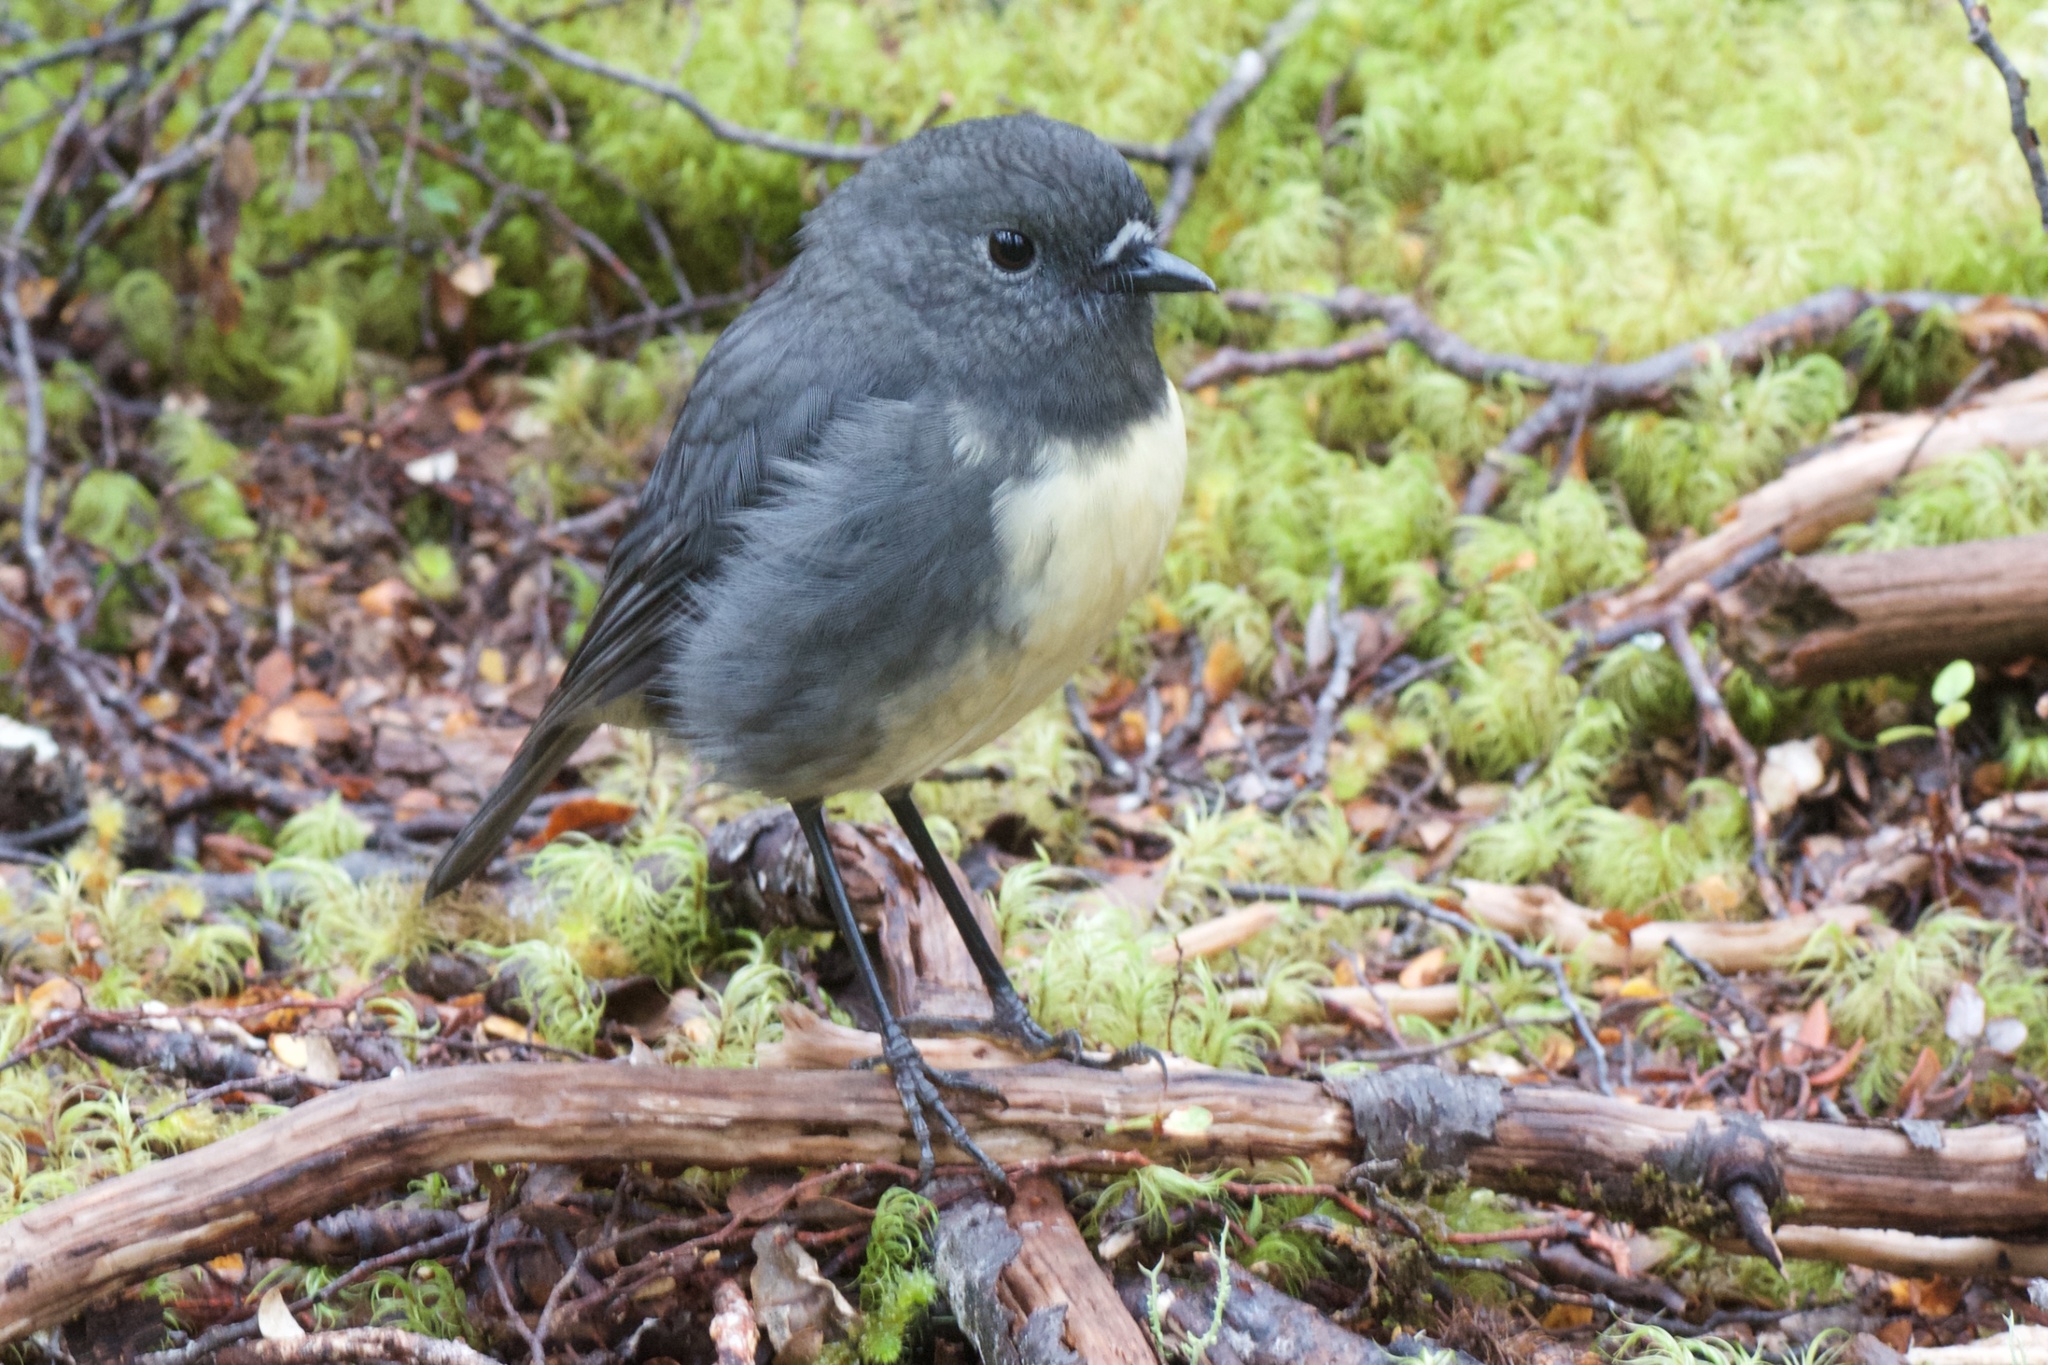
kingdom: Animalia
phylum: Chordata
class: Aves
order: Passeriformes
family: Petroicidae
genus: Petroica
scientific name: Petroica australis
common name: New zealand robin
